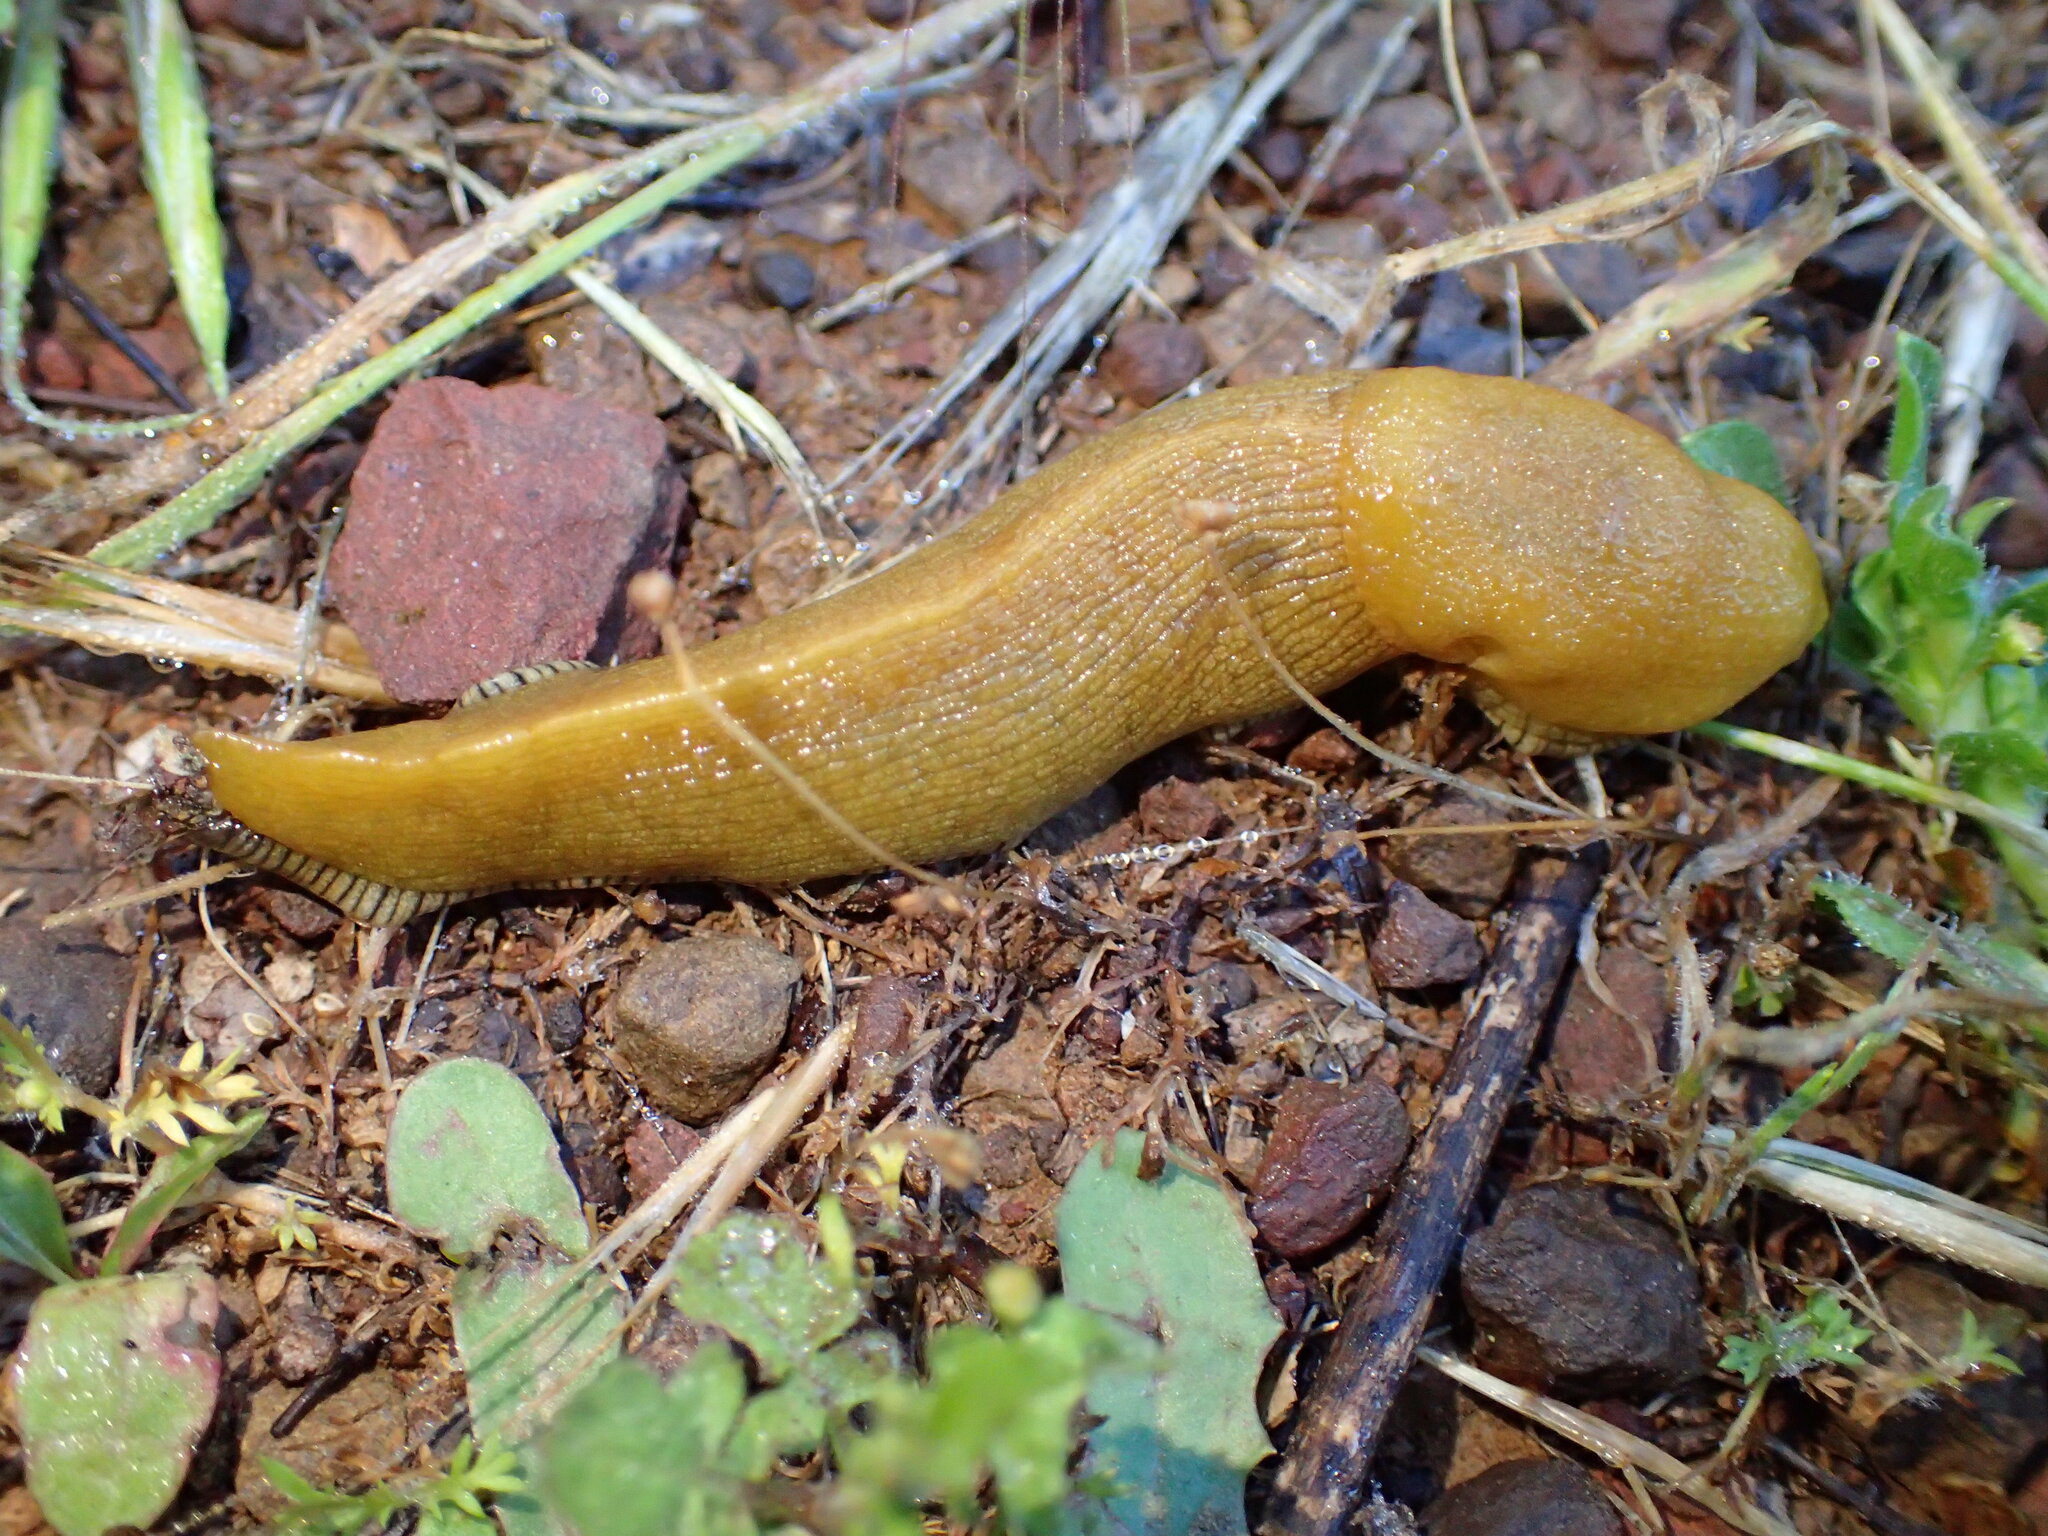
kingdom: Animalia
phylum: Mollusca
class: Gastropoda
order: Stylommatophora
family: Ariolimacidae
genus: Ariolimax
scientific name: Ariolimax stramineus
